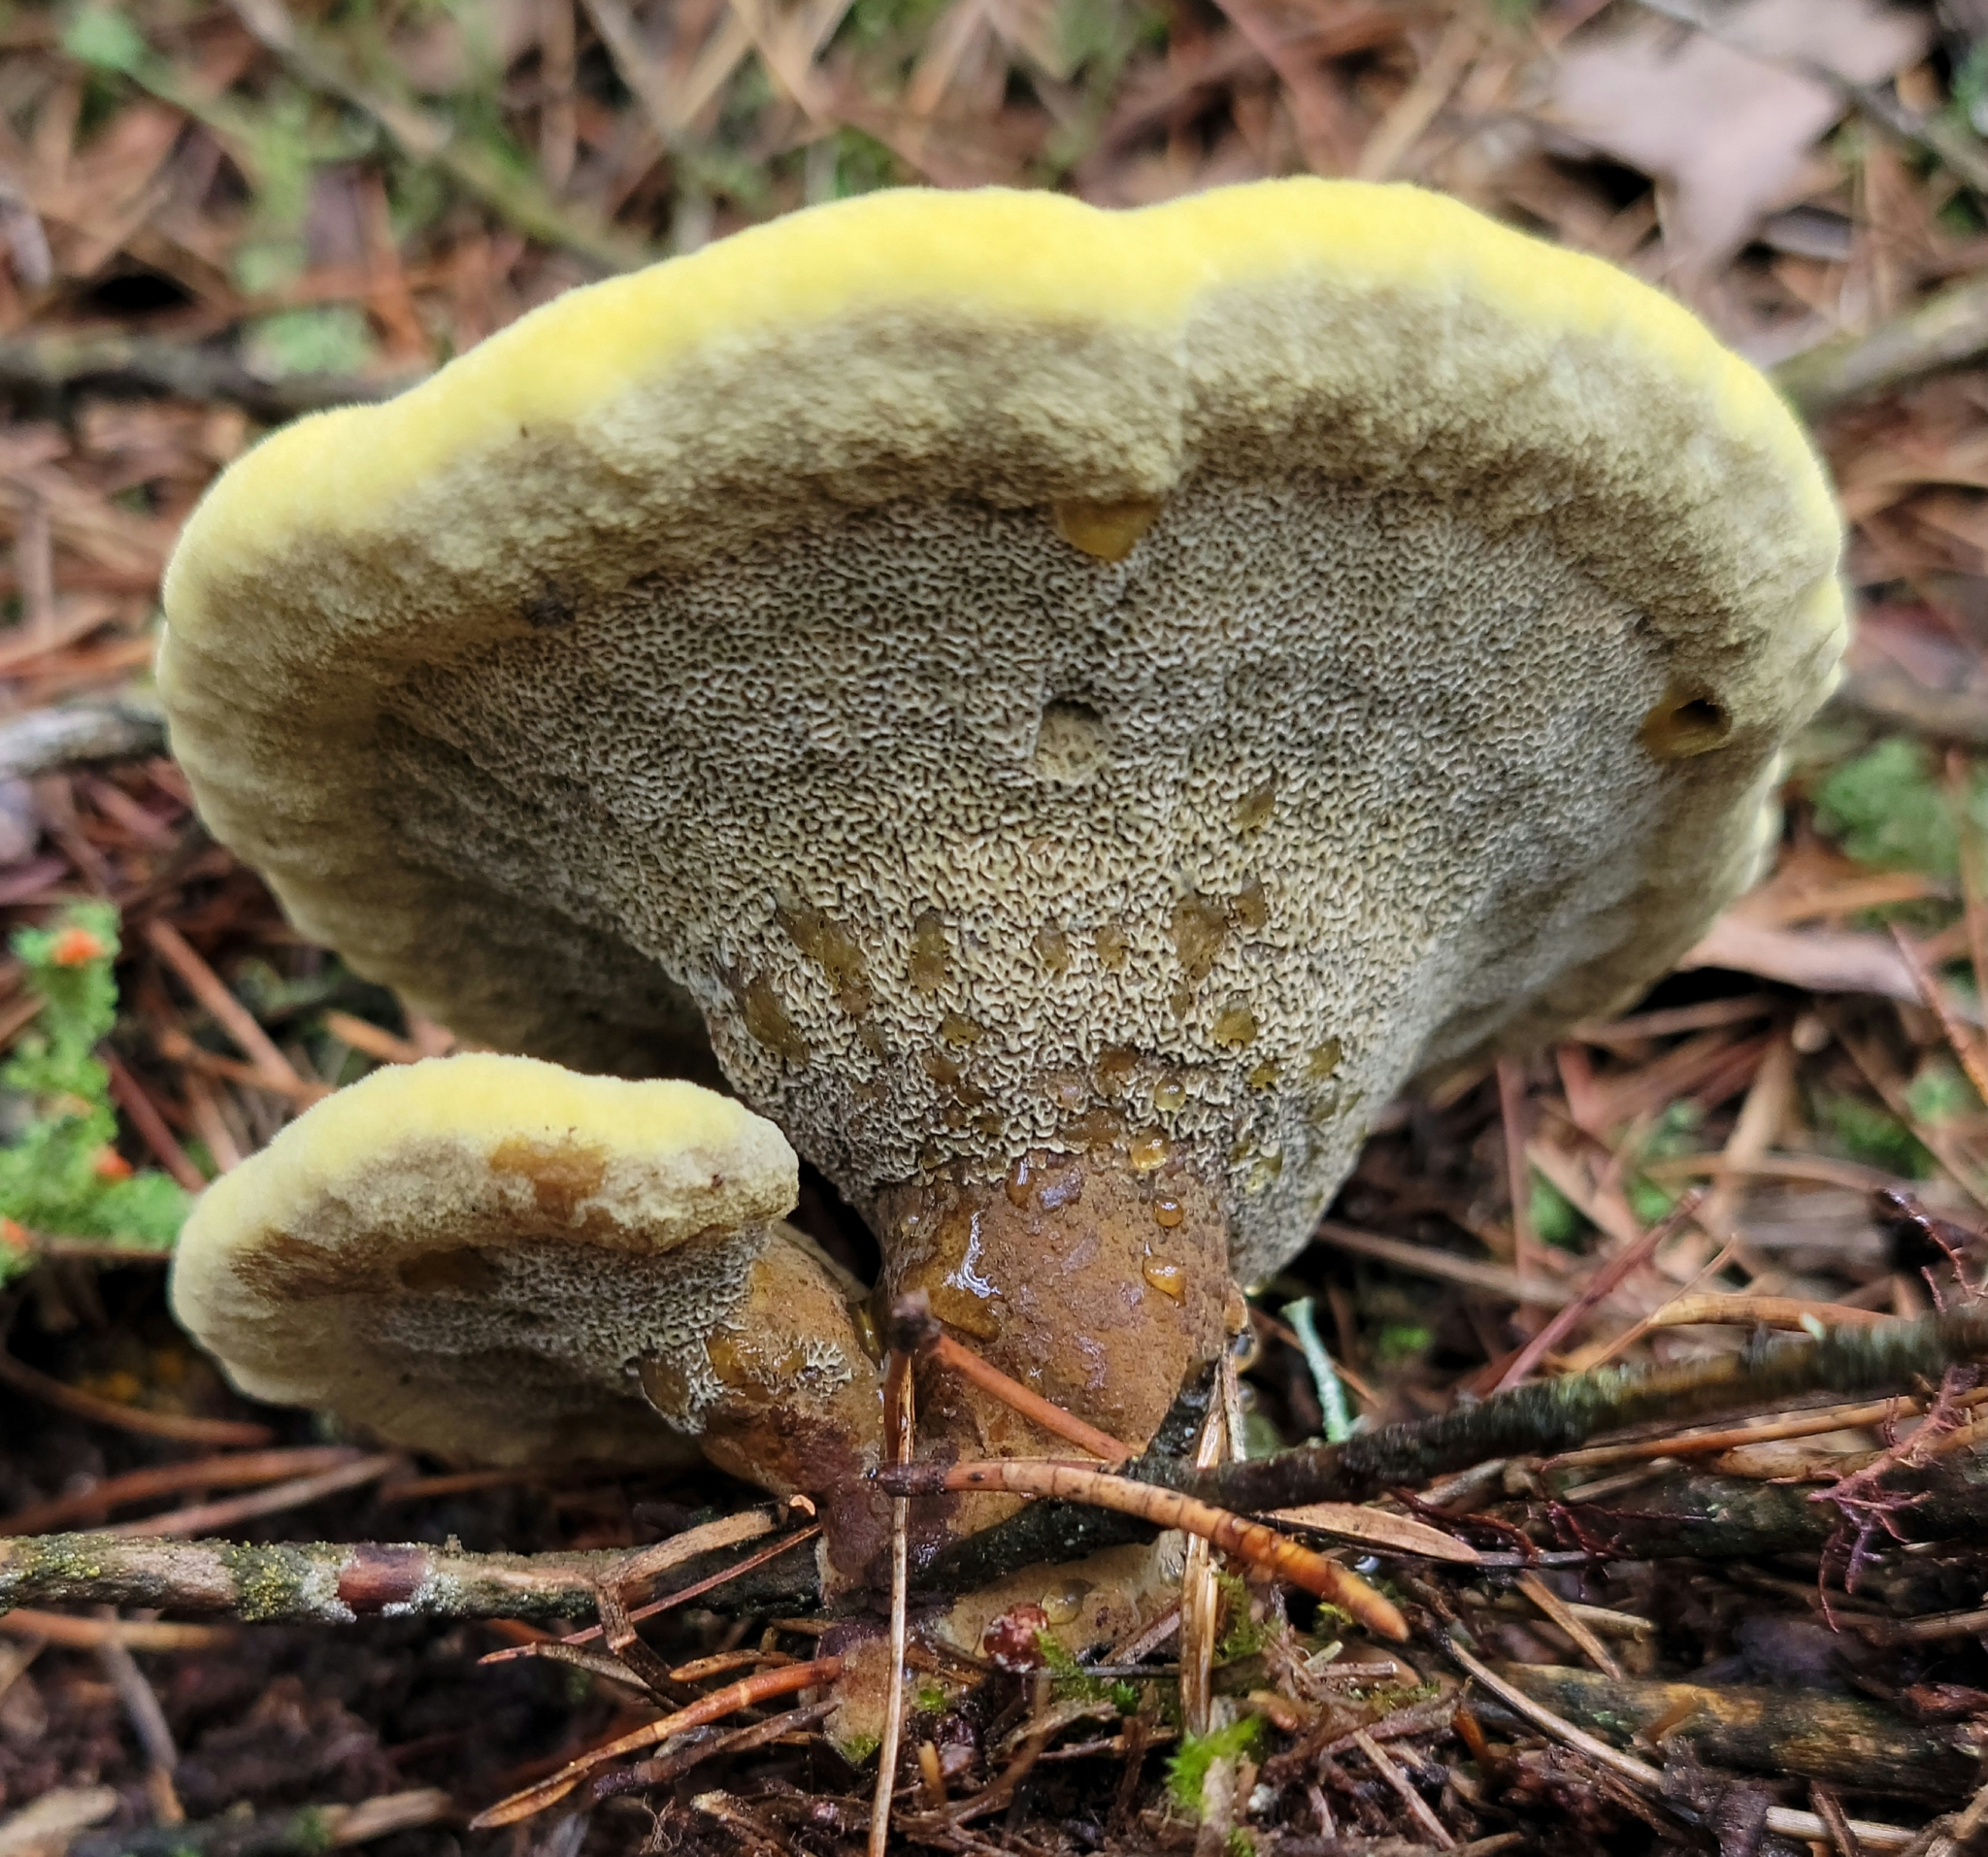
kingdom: Fungi
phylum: Basidiomycota
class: Agaricomycetes
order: Polyporales
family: Laetiporaceae
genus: Phaeolus
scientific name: Phaeolus schweinitzii
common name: Dyer's mazegill
